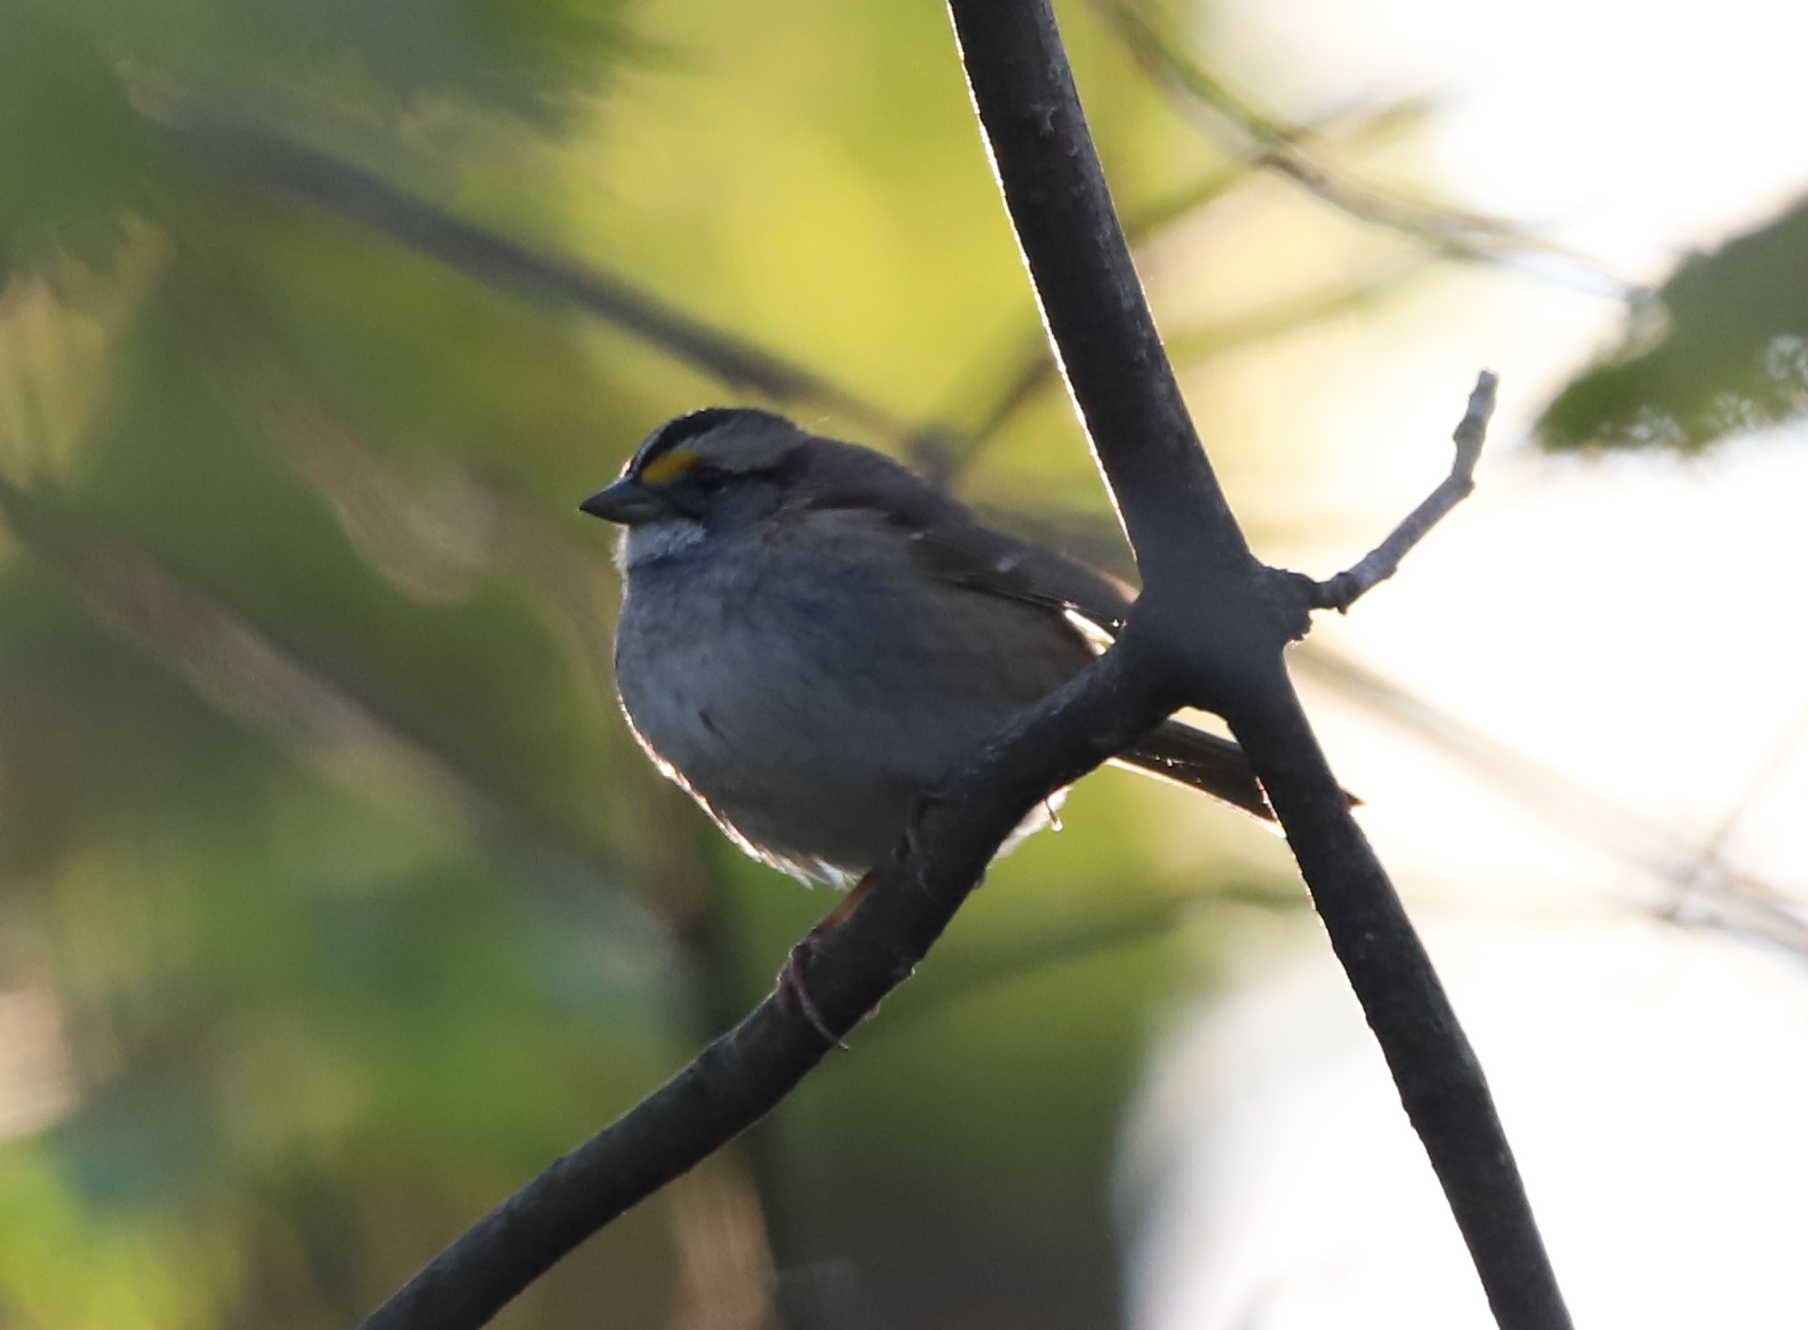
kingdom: Animalia
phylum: Chordata
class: Aves
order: Passeriformes
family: Passerellidae
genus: Zonotrichia
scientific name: Zonotrichia albicollis
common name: White-throated sparrow
